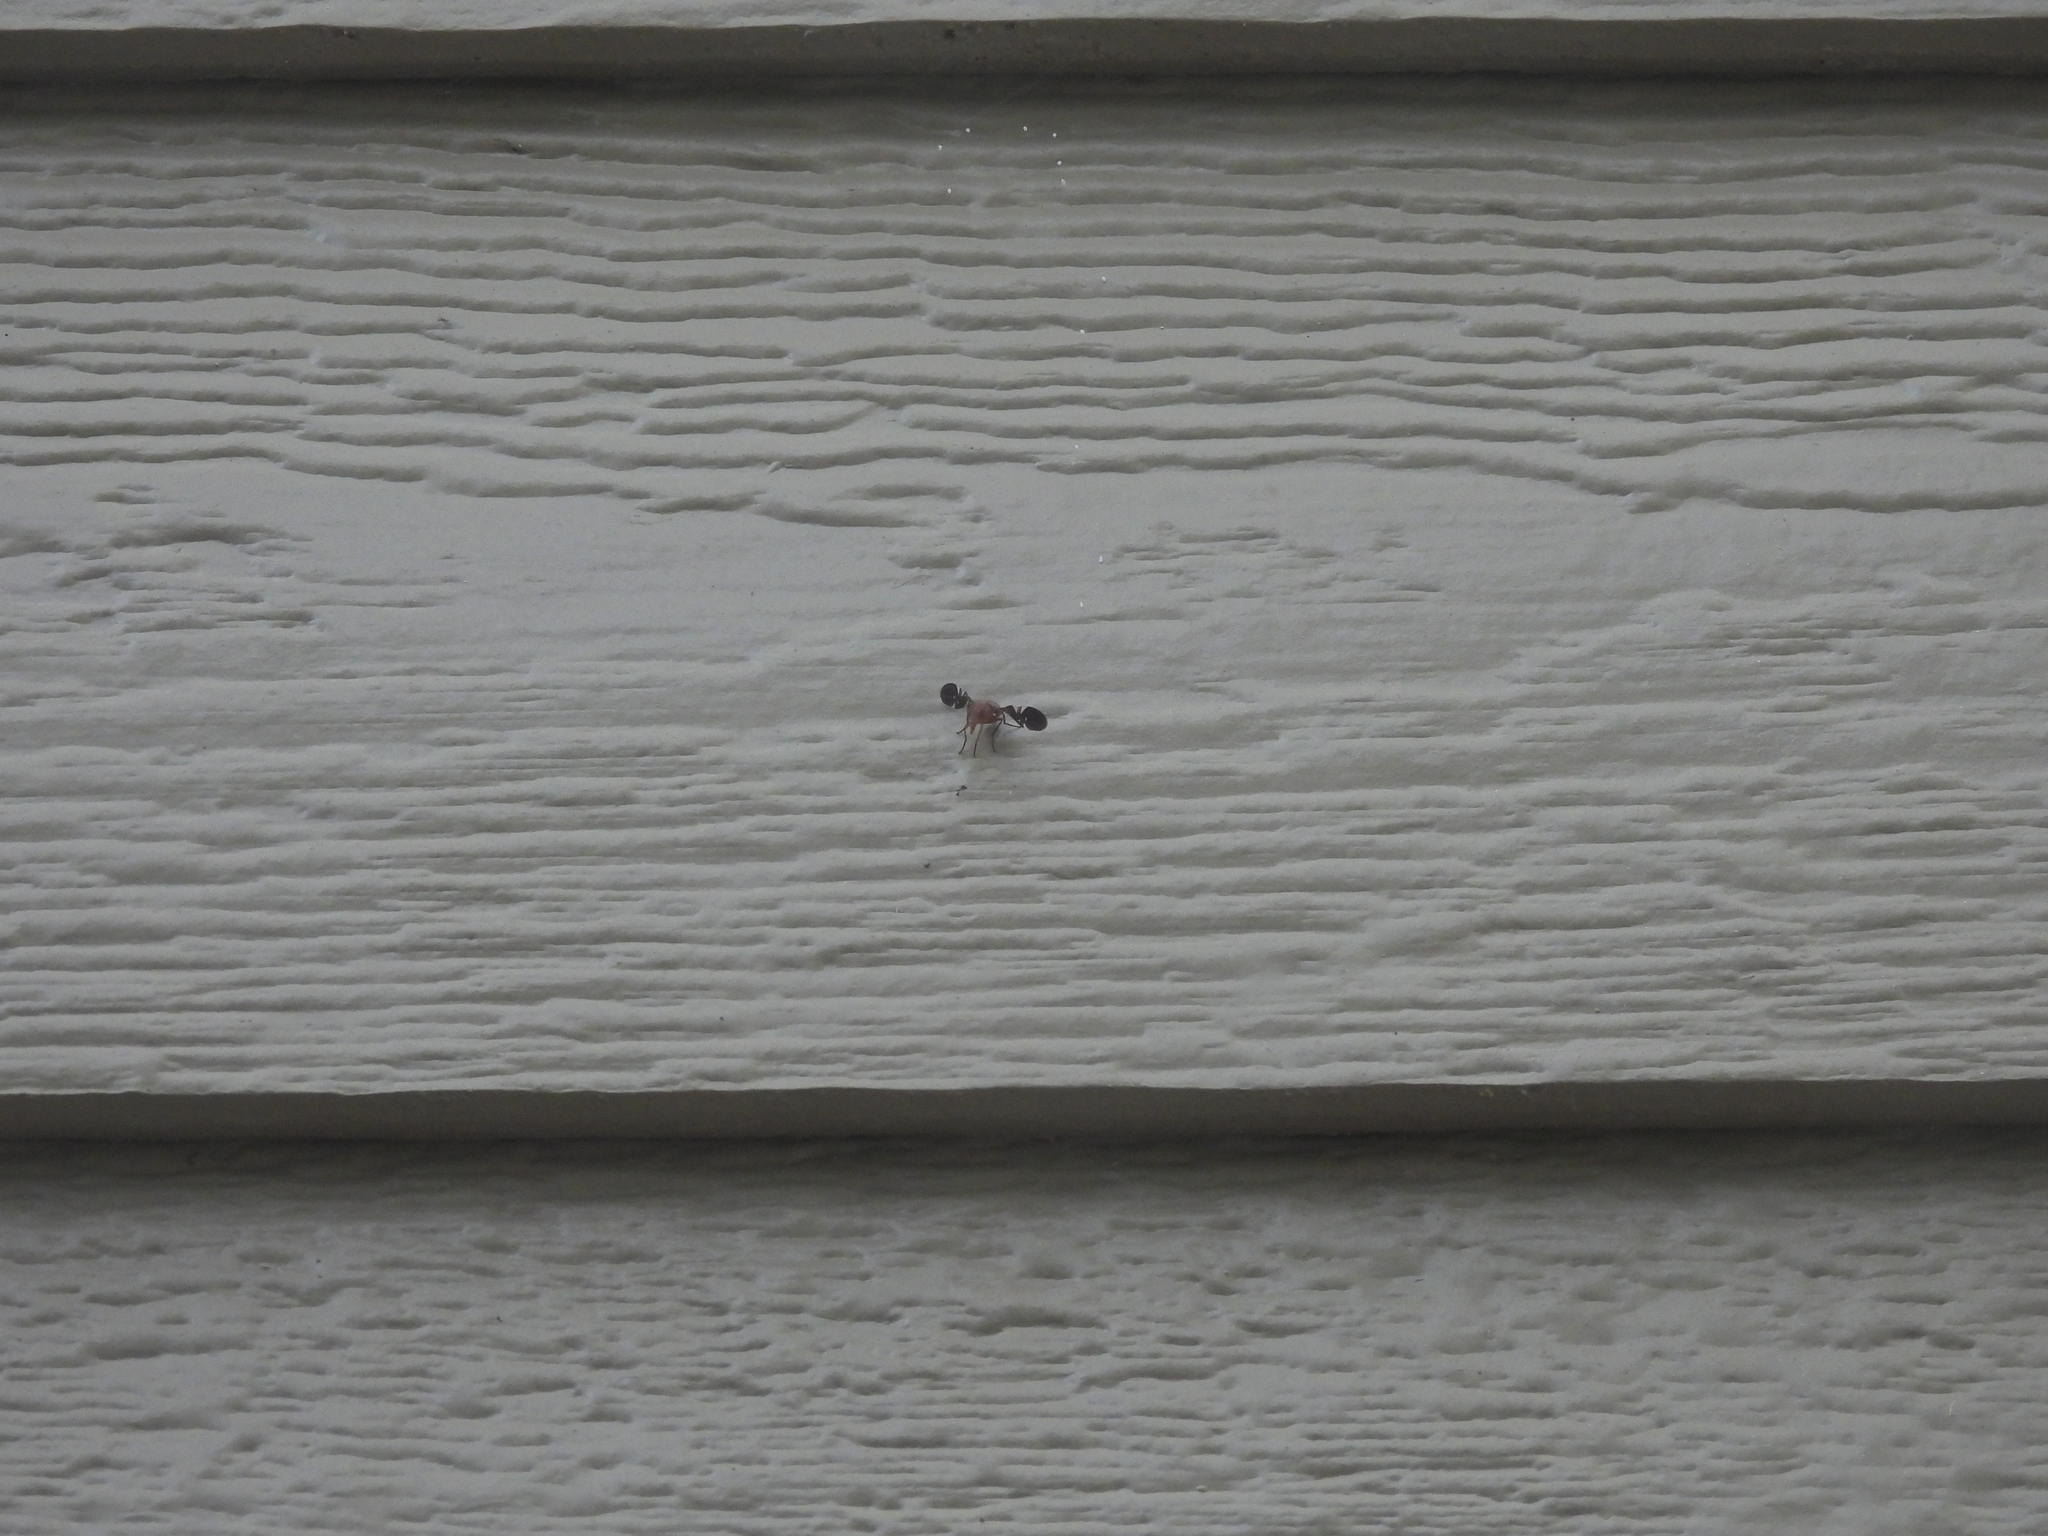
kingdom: Animalia
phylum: Arthropoda
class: Insecta
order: Diptera
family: Ulidiidae
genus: Delphinia
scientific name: Delphinia picta
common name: Common picture-winged fly
